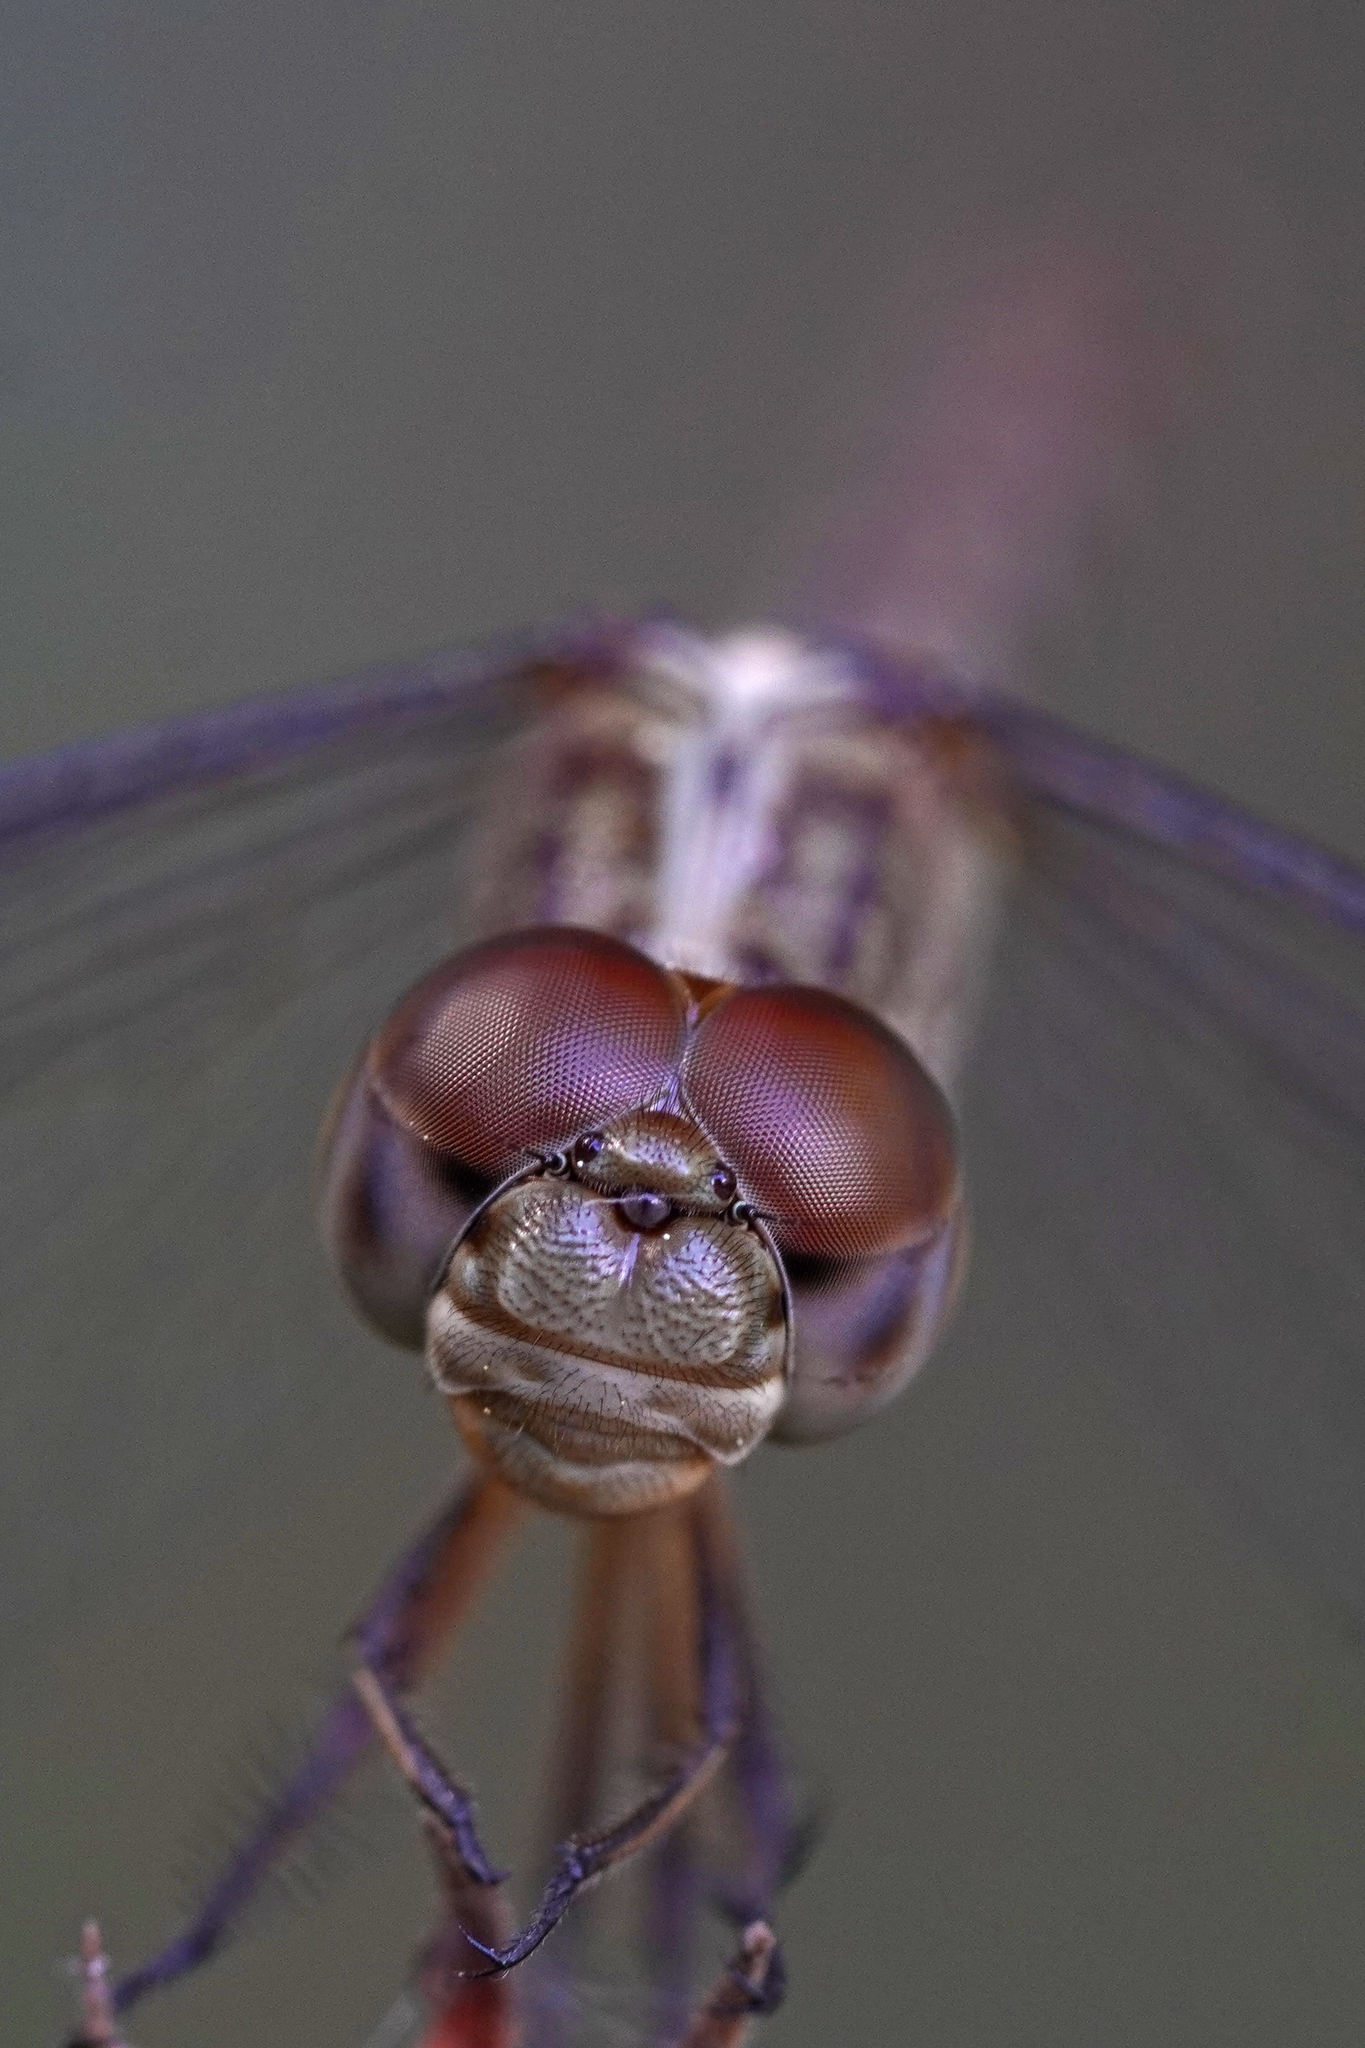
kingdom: Animalia
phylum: Arthropoda
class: Insecta
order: Odonata
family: Libellulidae
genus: Erythrodiplax
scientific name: Erythrodiplax umbrata
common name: Band-winged dragonlet
